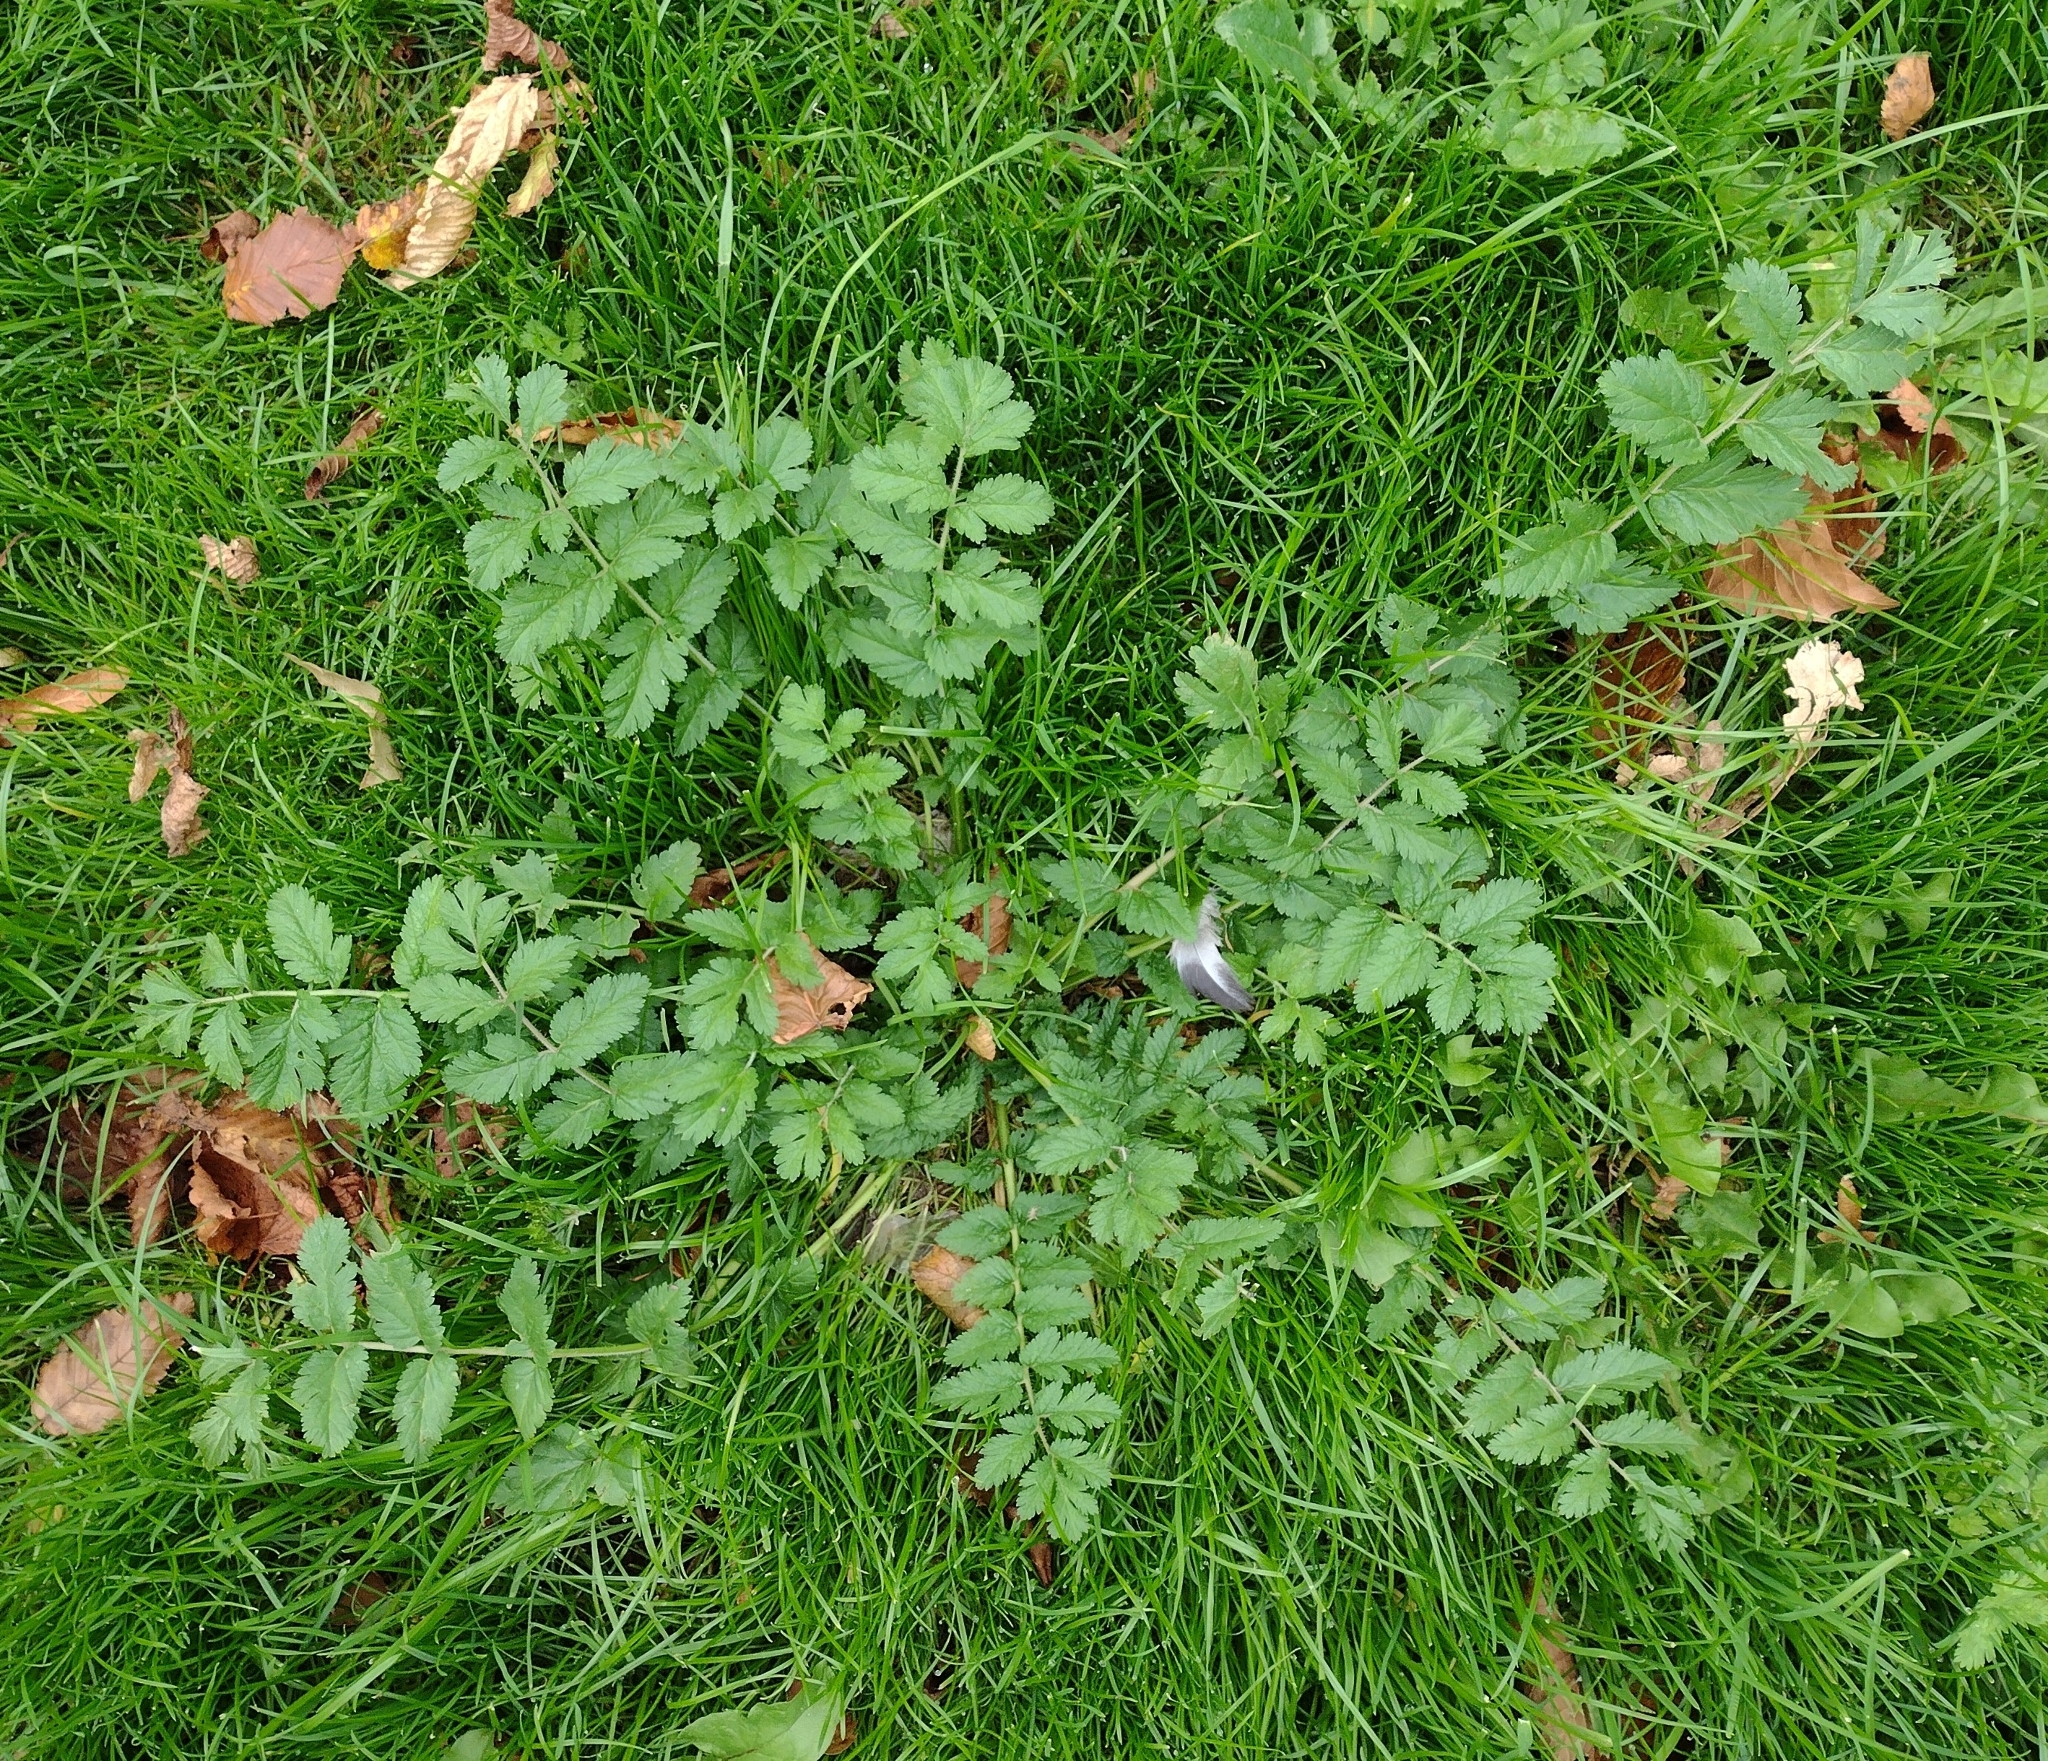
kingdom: Plantae
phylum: Tracheophyta
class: Magnoliopsida
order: Geraniales
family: Geraniaceae
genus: Erodium
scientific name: Erodium moschatum
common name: Musk stork's-bill
